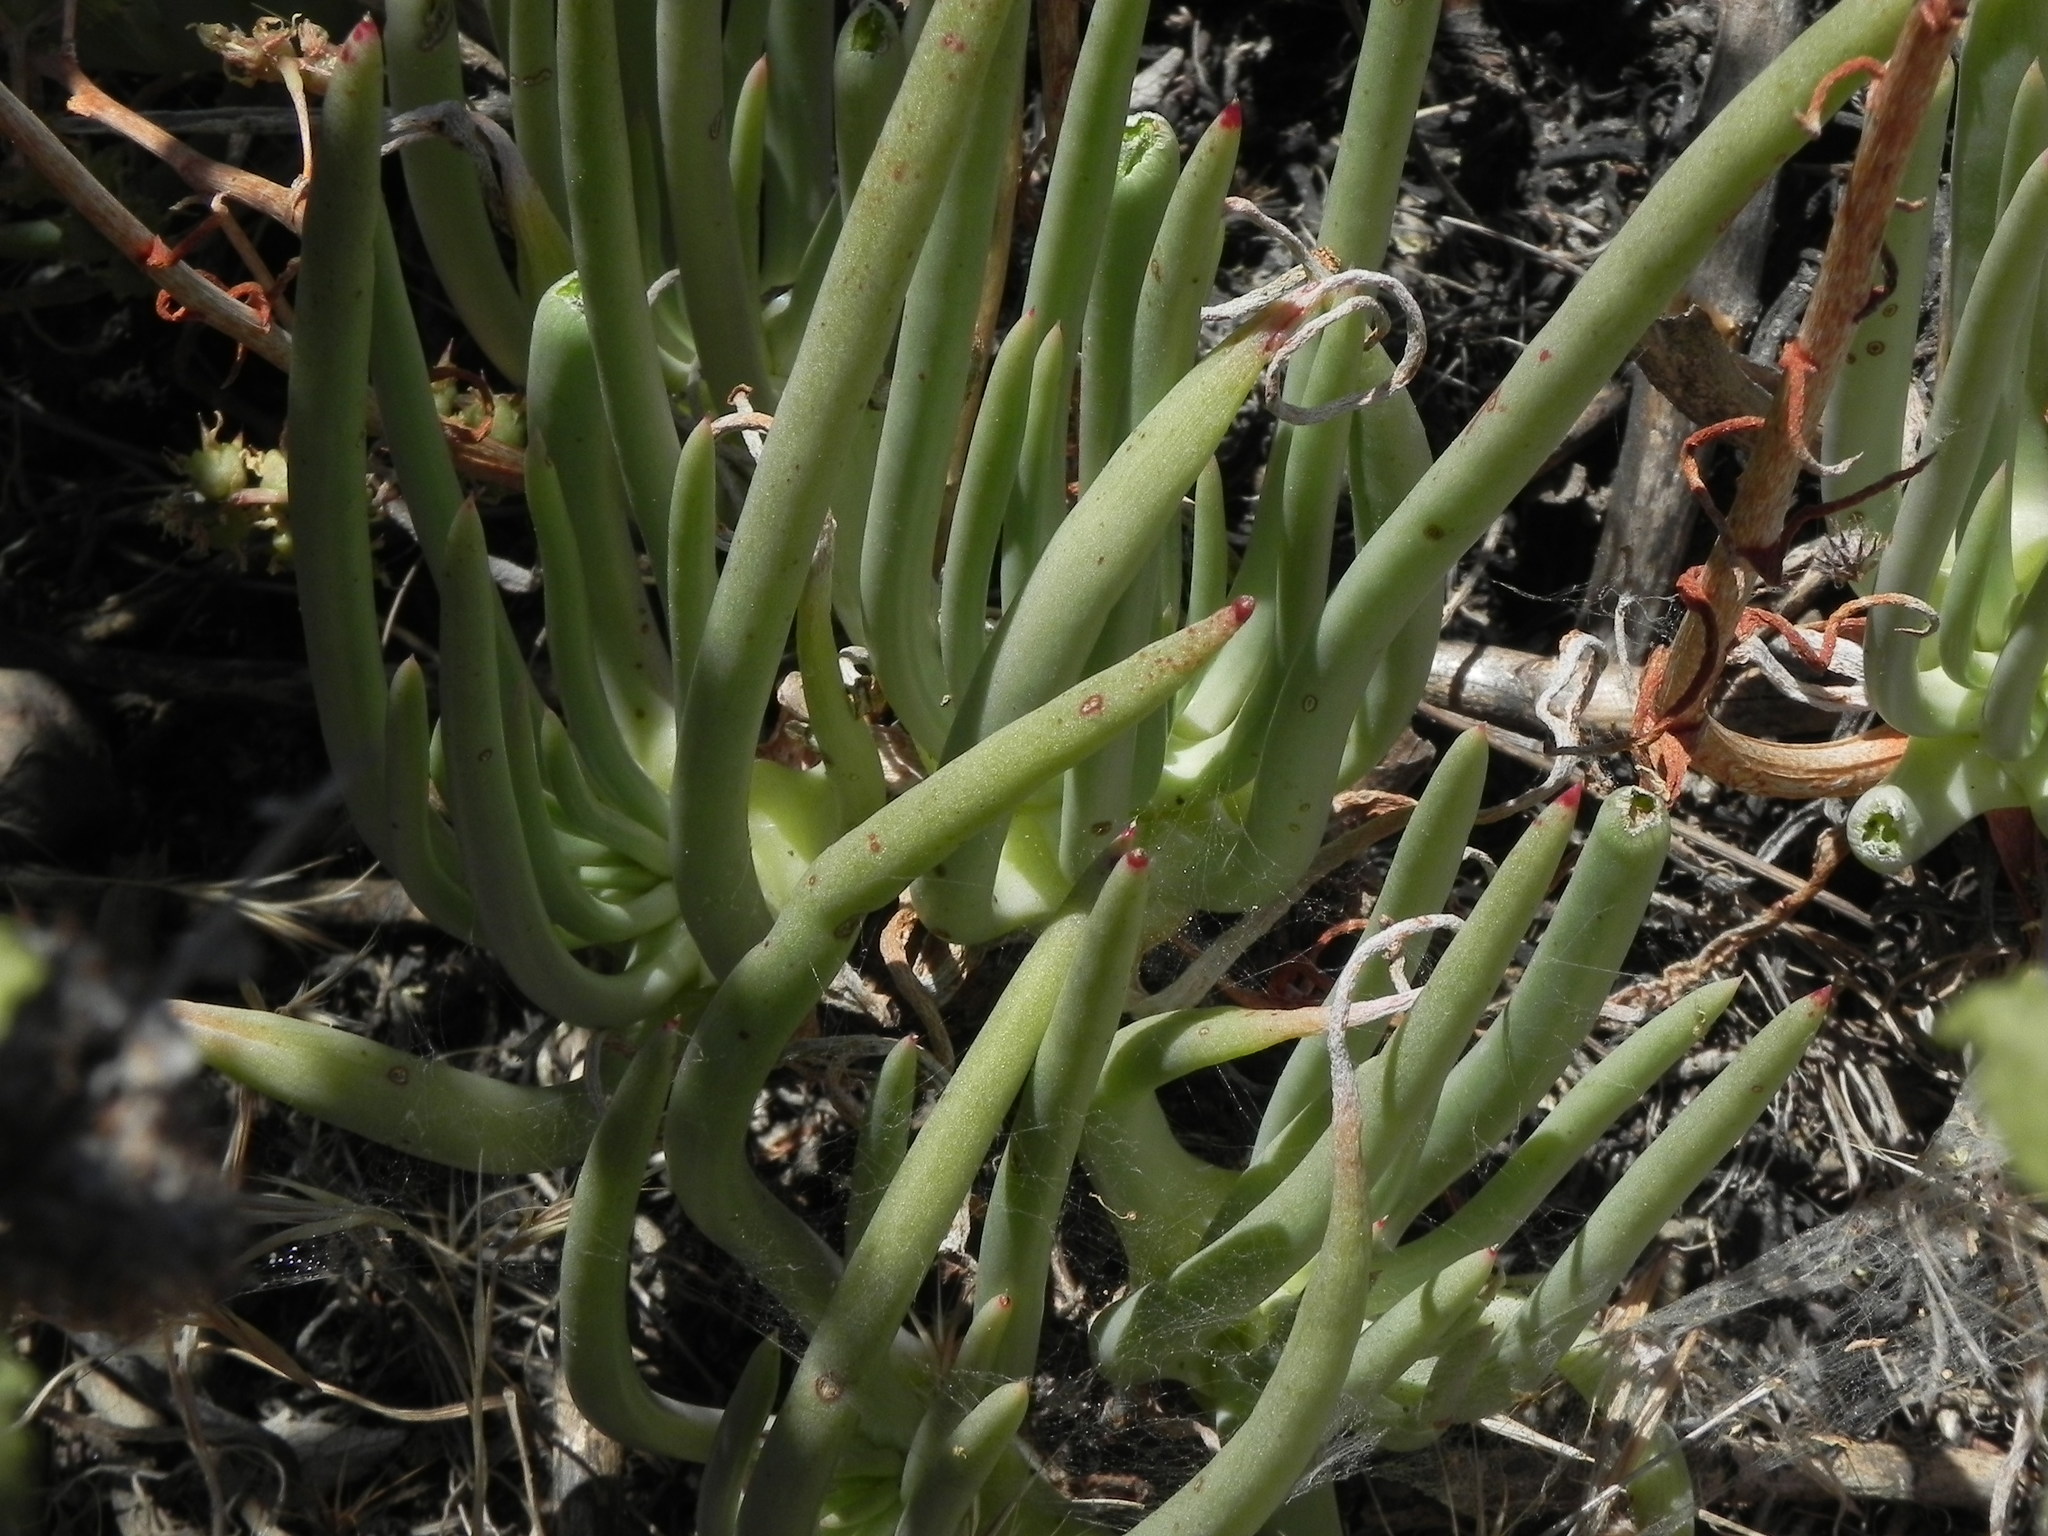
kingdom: Plantae
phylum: Tracheophyta
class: Magnoliopsida
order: Saxifragales
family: Crassulaceae
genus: Dudleya
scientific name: Dudleya edulis
